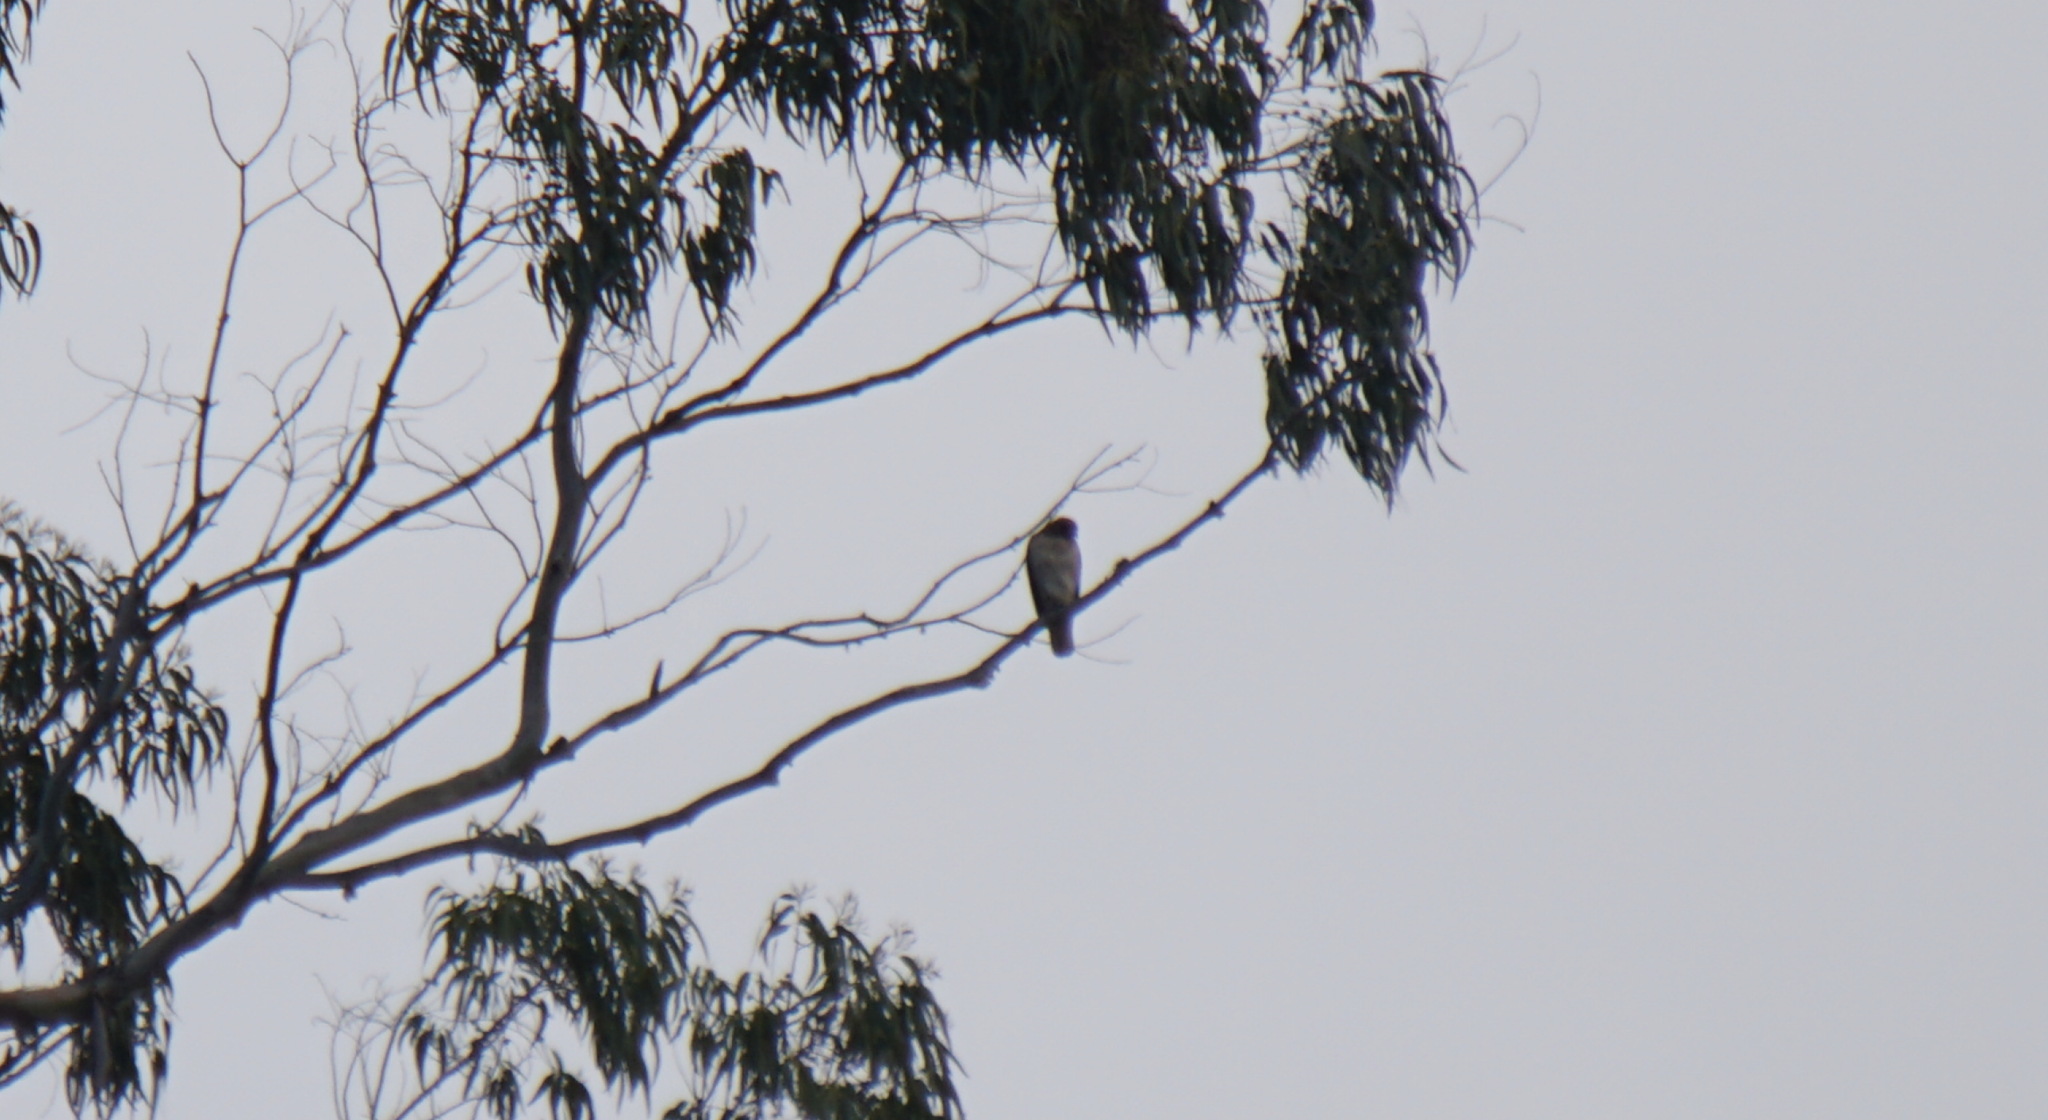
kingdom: Animalia
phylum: Chordata
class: Aves
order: Accipitriformes
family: Accipitridae
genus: Buteo
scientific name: Buteo jamaicensis
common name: Red-tailed hawk
